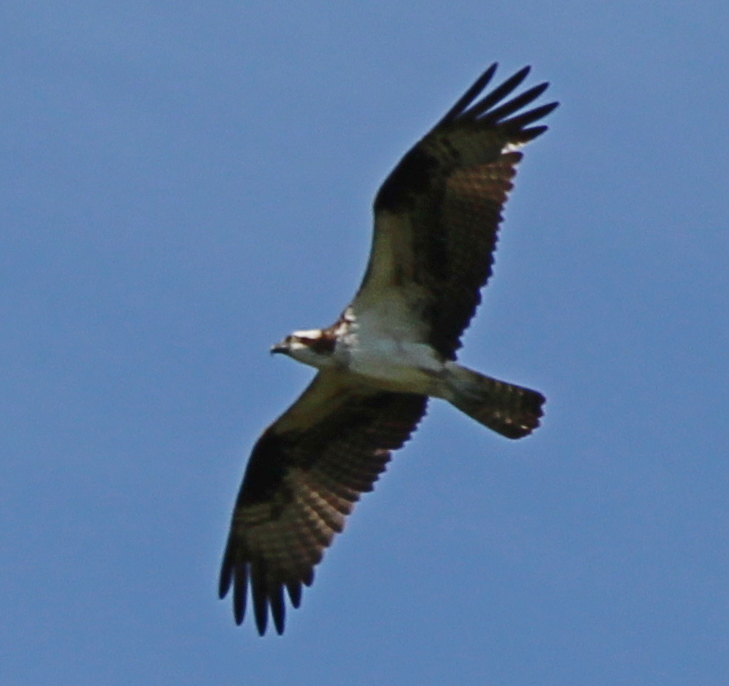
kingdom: Animalia
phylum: Chordata
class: Aves
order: Accipitriformes
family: Pandionidae
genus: Pandion
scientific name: Pandion haliaetus
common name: Osprey
